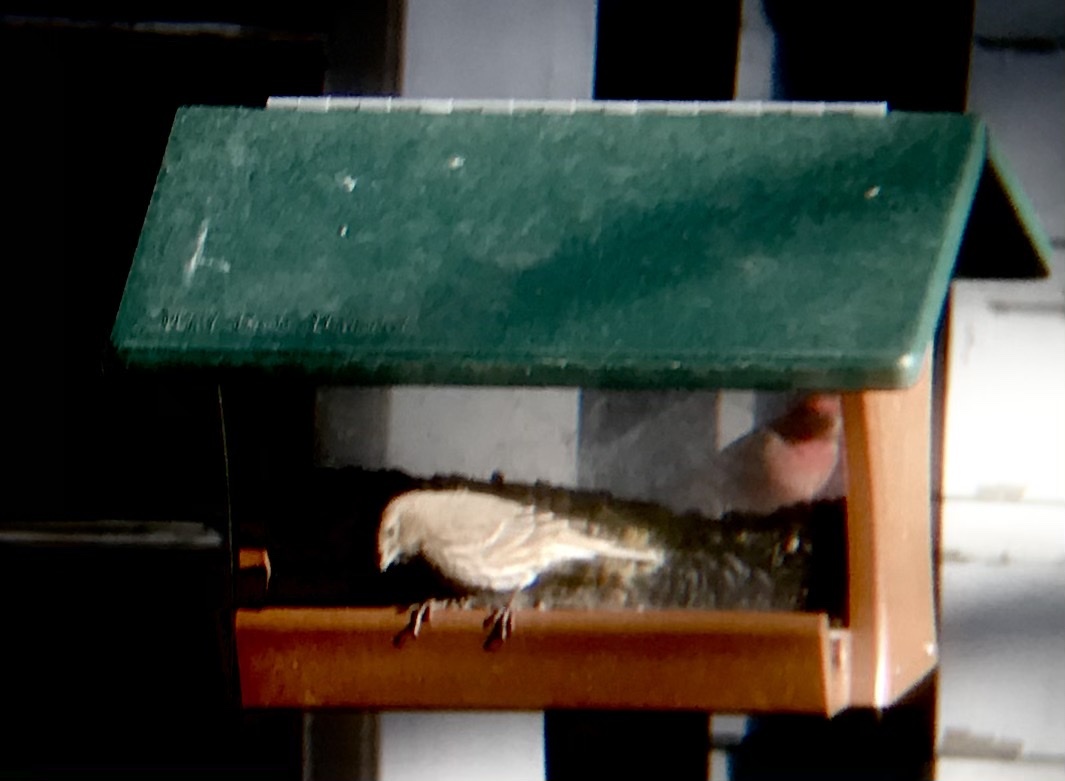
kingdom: Animalia
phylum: Chordata
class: Aves
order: Passeriformes
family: Fringillidae
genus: Haemorhous
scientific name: Haemorhous mexicanus
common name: House finch
